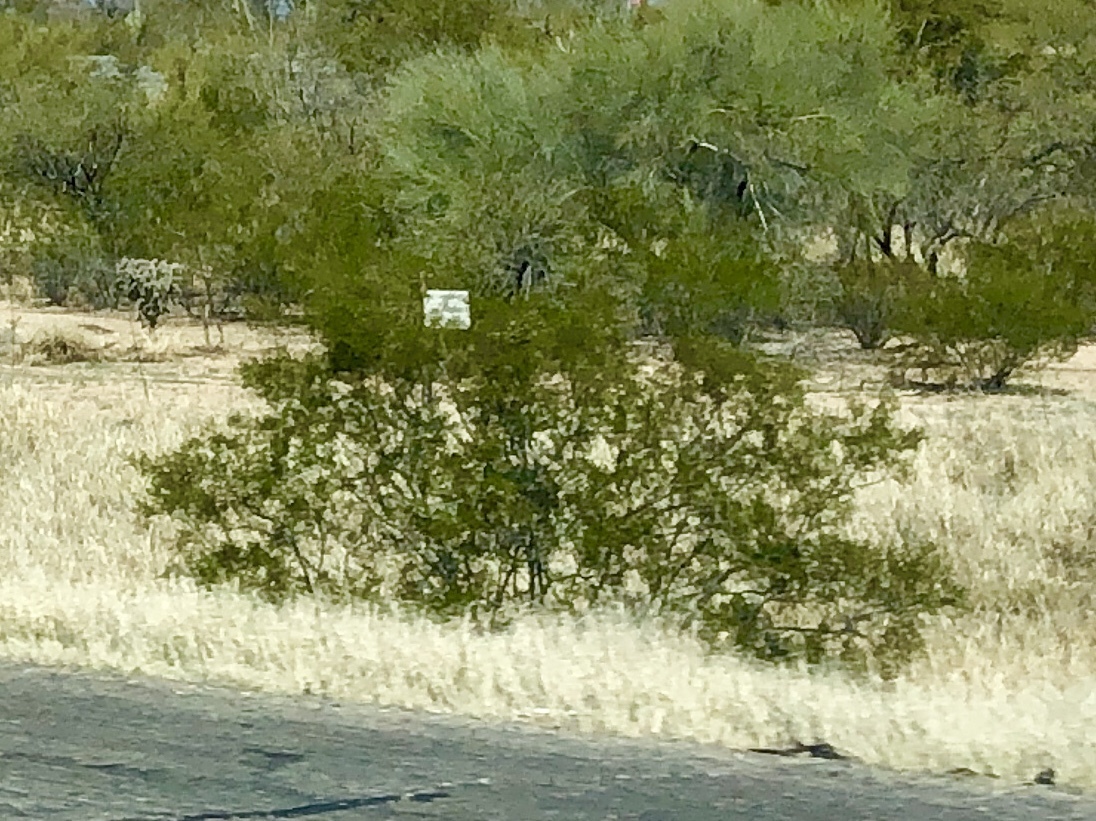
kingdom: Plantae
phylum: Tracheophyta
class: Magnoliopsida
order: Zygophyllales
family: Zygophyllaceae
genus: Larrea
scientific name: Larrea tridentata
